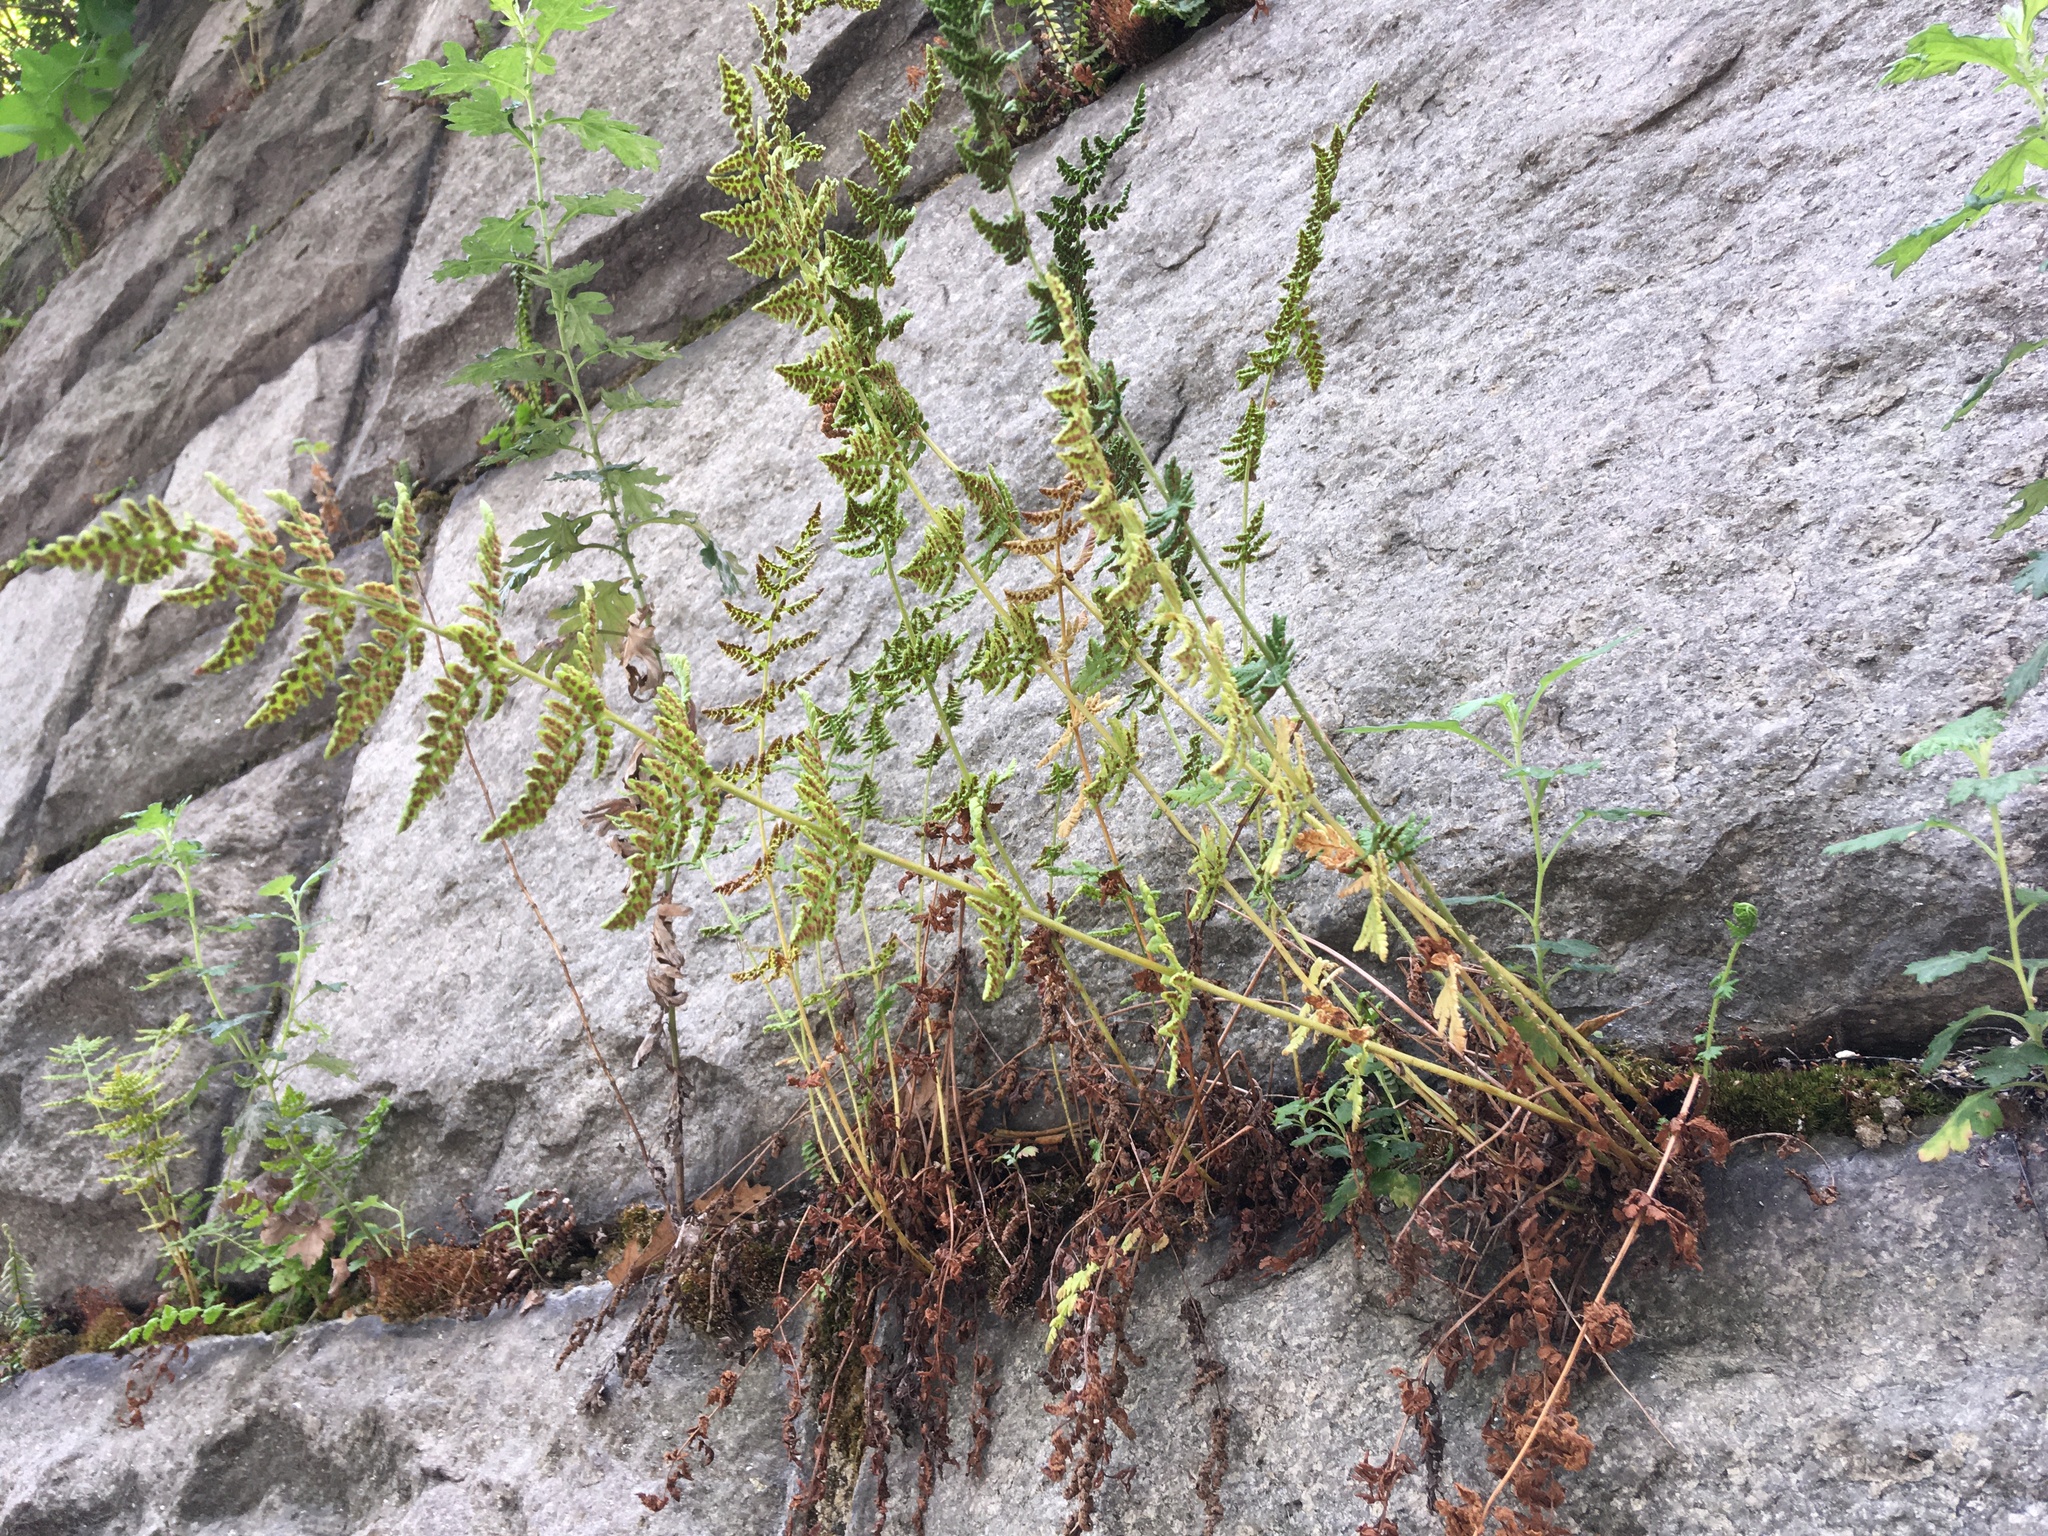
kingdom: Plantae
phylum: Tracheophyta
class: Polypodiopsida
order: Polypodiales
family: Woodsiaceae
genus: Physematium
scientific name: Physematium obtusum
